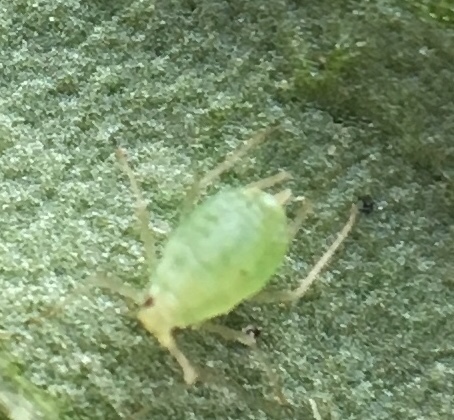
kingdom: Animalia
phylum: Arthropoda
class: Insecta
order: Hemiptera
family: Aphididae
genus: Myzus
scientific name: Myzus persicae
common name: Green peach aphid
